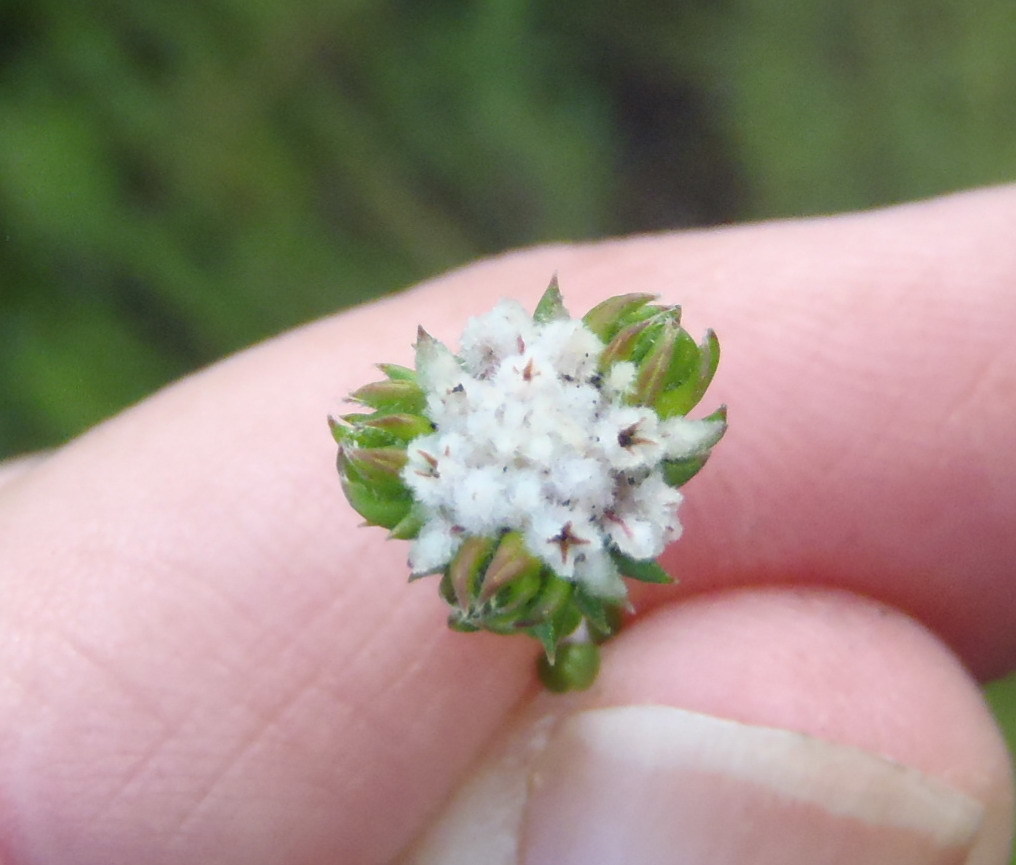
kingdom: Plantae
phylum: Tracheophyta
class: Magnoliopsida
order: Rosales
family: Rhamnaceae
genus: Phylica
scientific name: Phylica debilis
